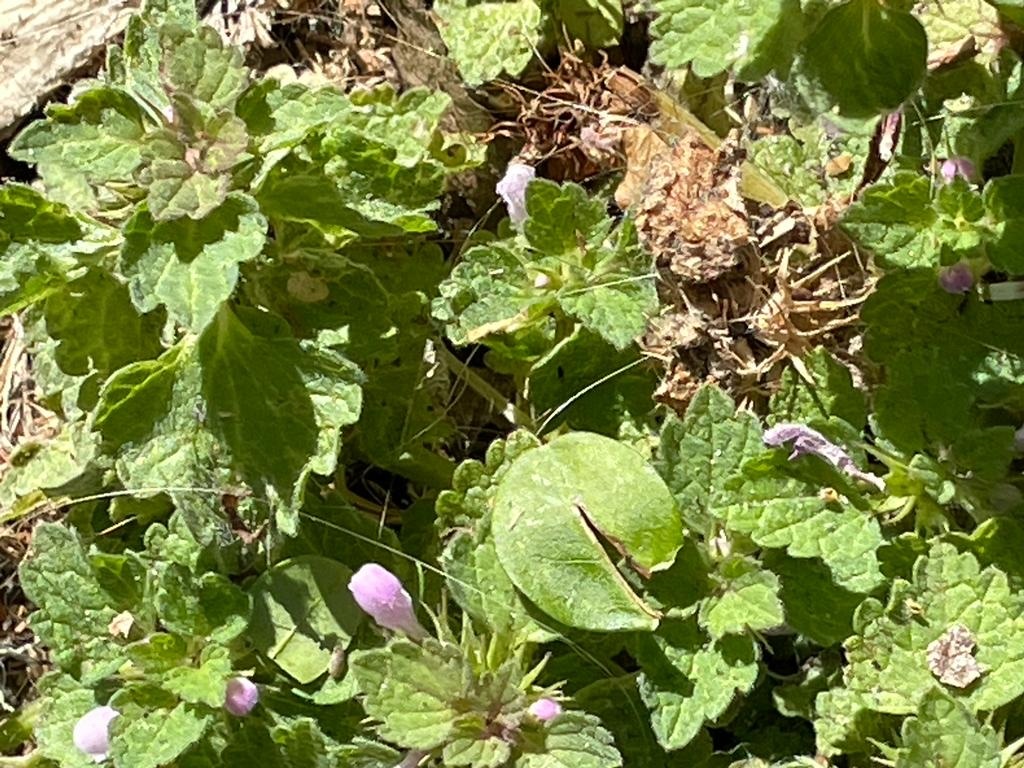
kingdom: Plantae
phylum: Tracheophyta
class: Magnoliopsida
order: Lamiales
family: Lamiaceae
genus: Lamium
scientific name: Lamium purpureum
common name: Red dead-nettle
